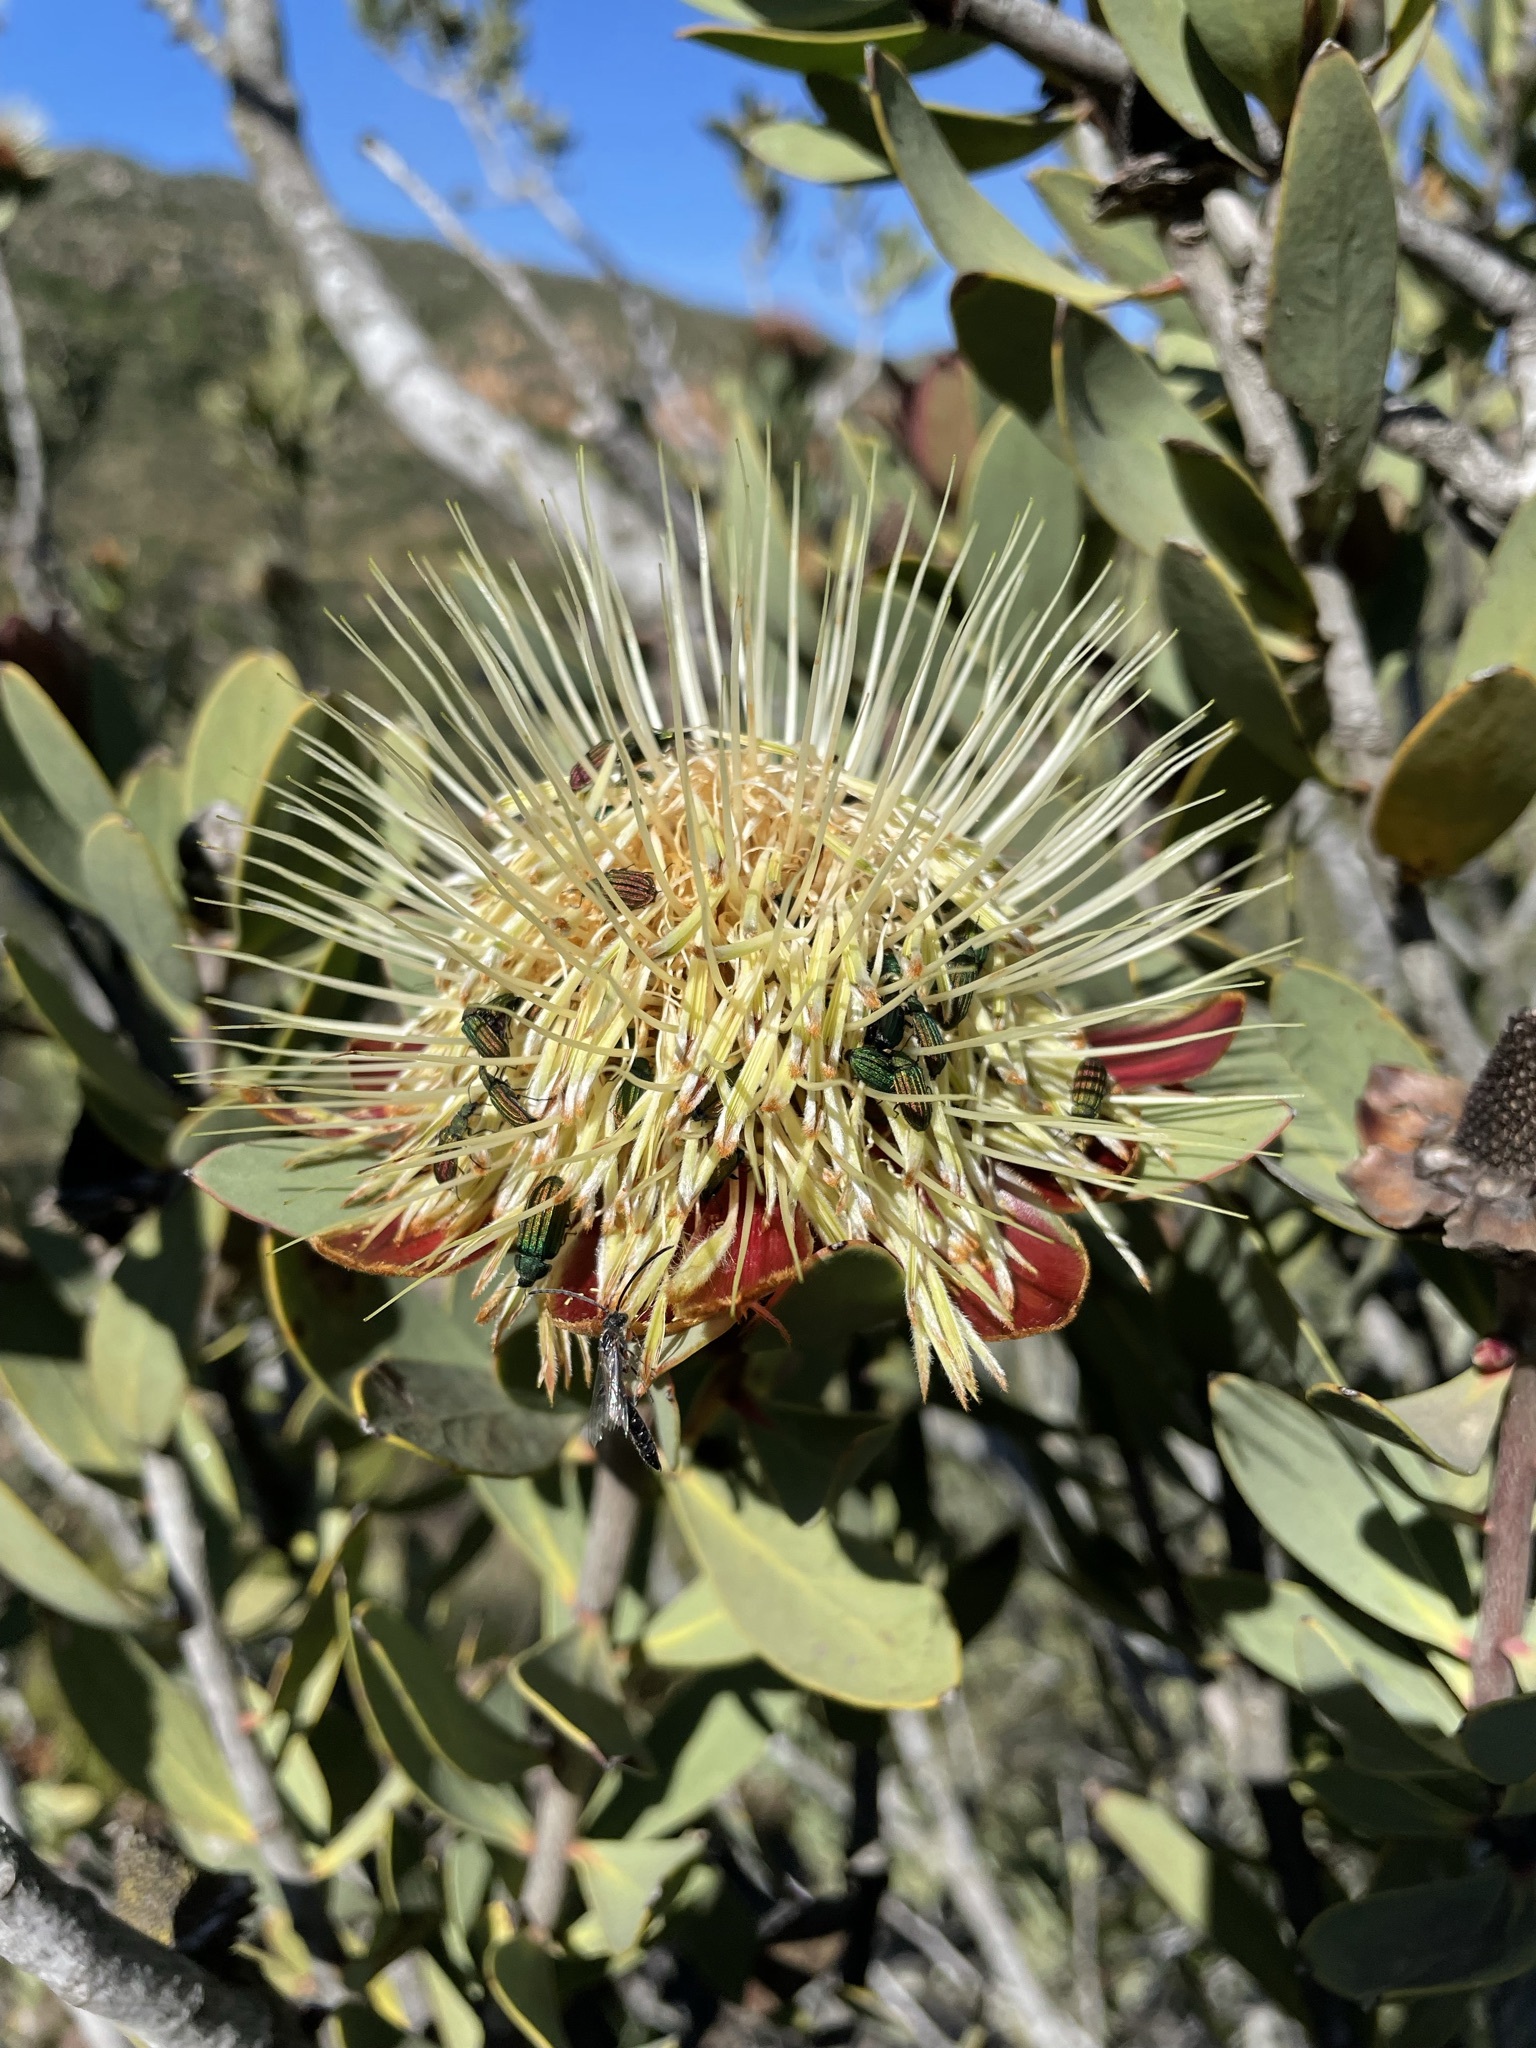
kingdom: Plantae
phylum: Tracheophyta
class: Magnoliopsida
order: Proteales
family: Proteaceae
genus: Protea
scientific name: Protea glabra
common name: Chestnut sugarbush
